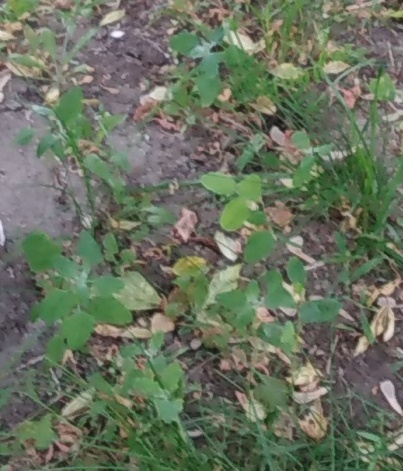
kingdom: Plantae
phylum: Tracheophyta
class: Magnoliopsida
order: Caryophyllales
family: Amaranthaceae
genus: Chenopodium
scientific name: Chenopodium album
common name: Fat-hen
